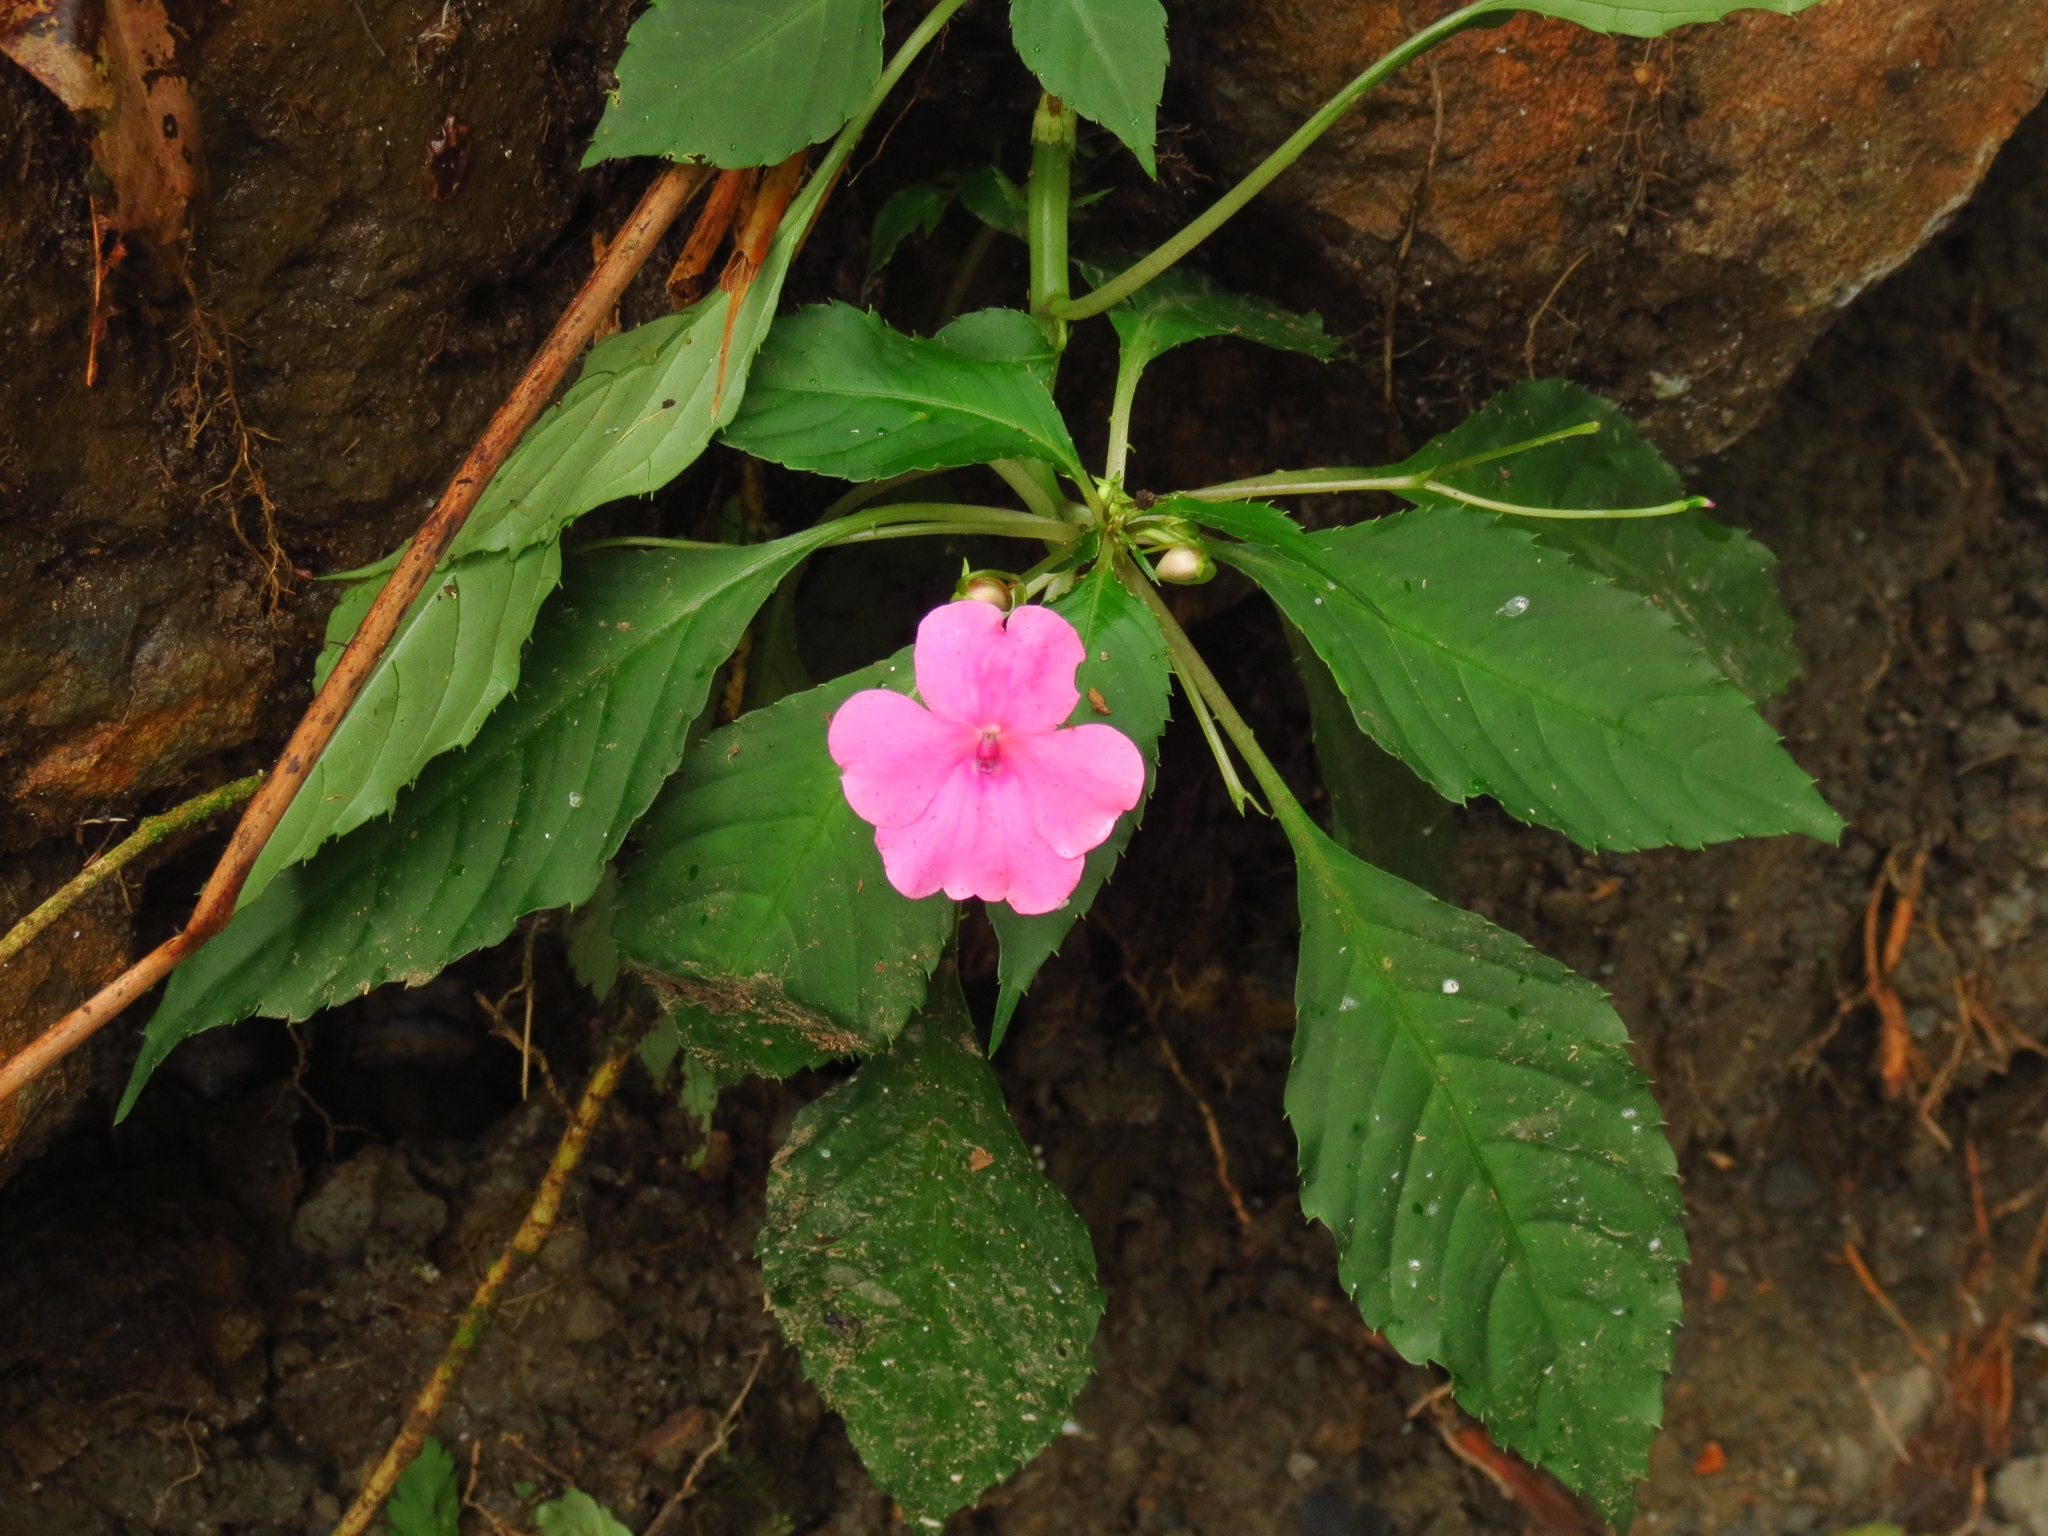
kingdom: Plantae
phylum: Tracheophyta
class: Magnoliopsida
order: Ericales
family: Balsaminaceae
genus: Impatiens
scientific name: Impatiens walleriana
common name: Buzzy lizzy
